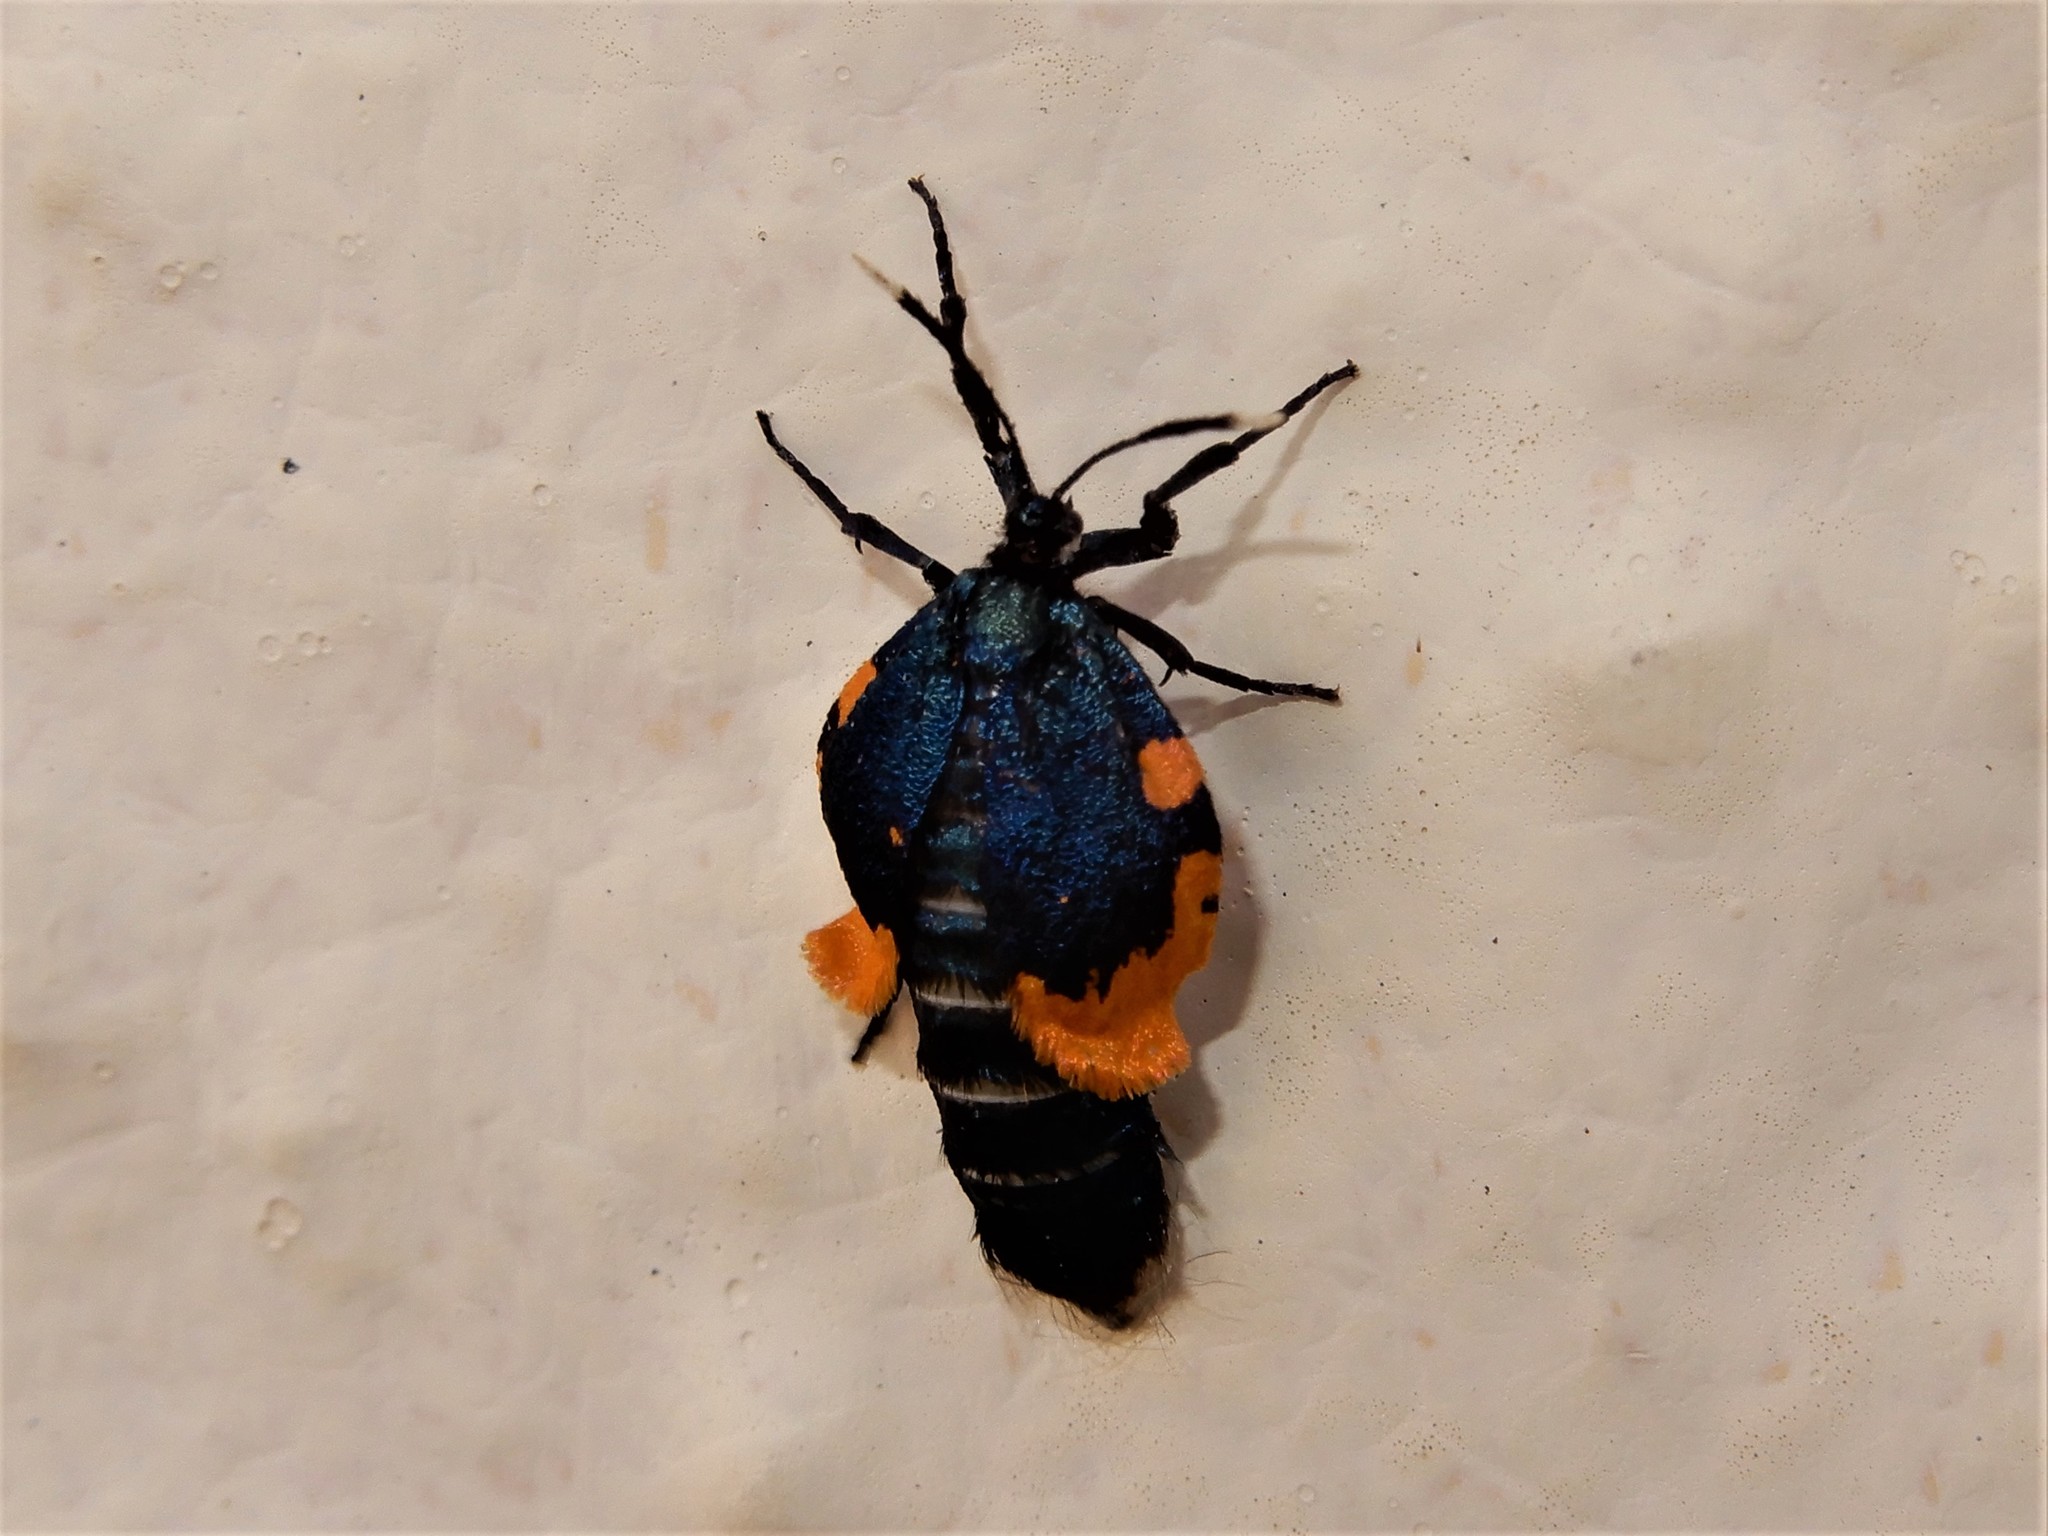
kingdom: Animalia
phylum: Arthropoda
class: Insecta
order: Lepidoptera
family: Psychidae
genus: Cebysa
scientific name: Cebysa leucotelus
